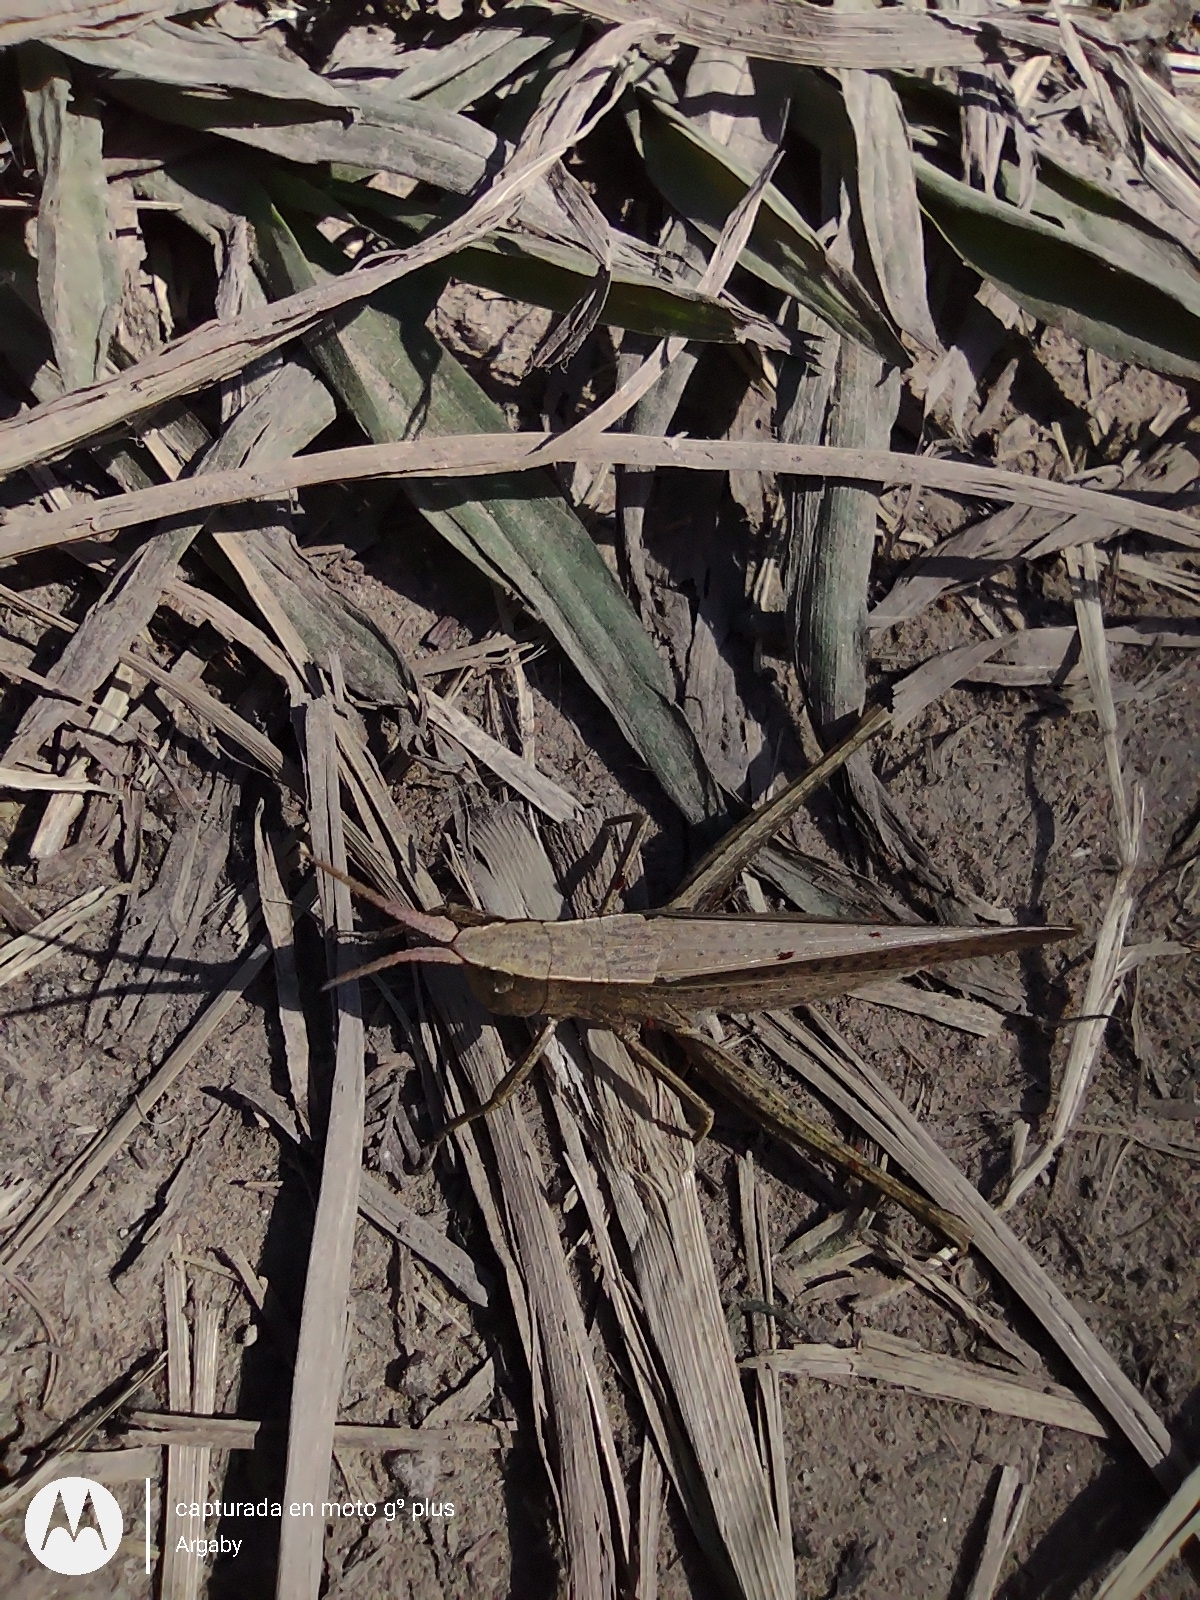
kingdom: Animalia
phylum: Arthropoda
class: Insecta
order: Orthoptera
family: Acrididae
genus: Metaleptea
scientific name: Metaleptea adspersa
